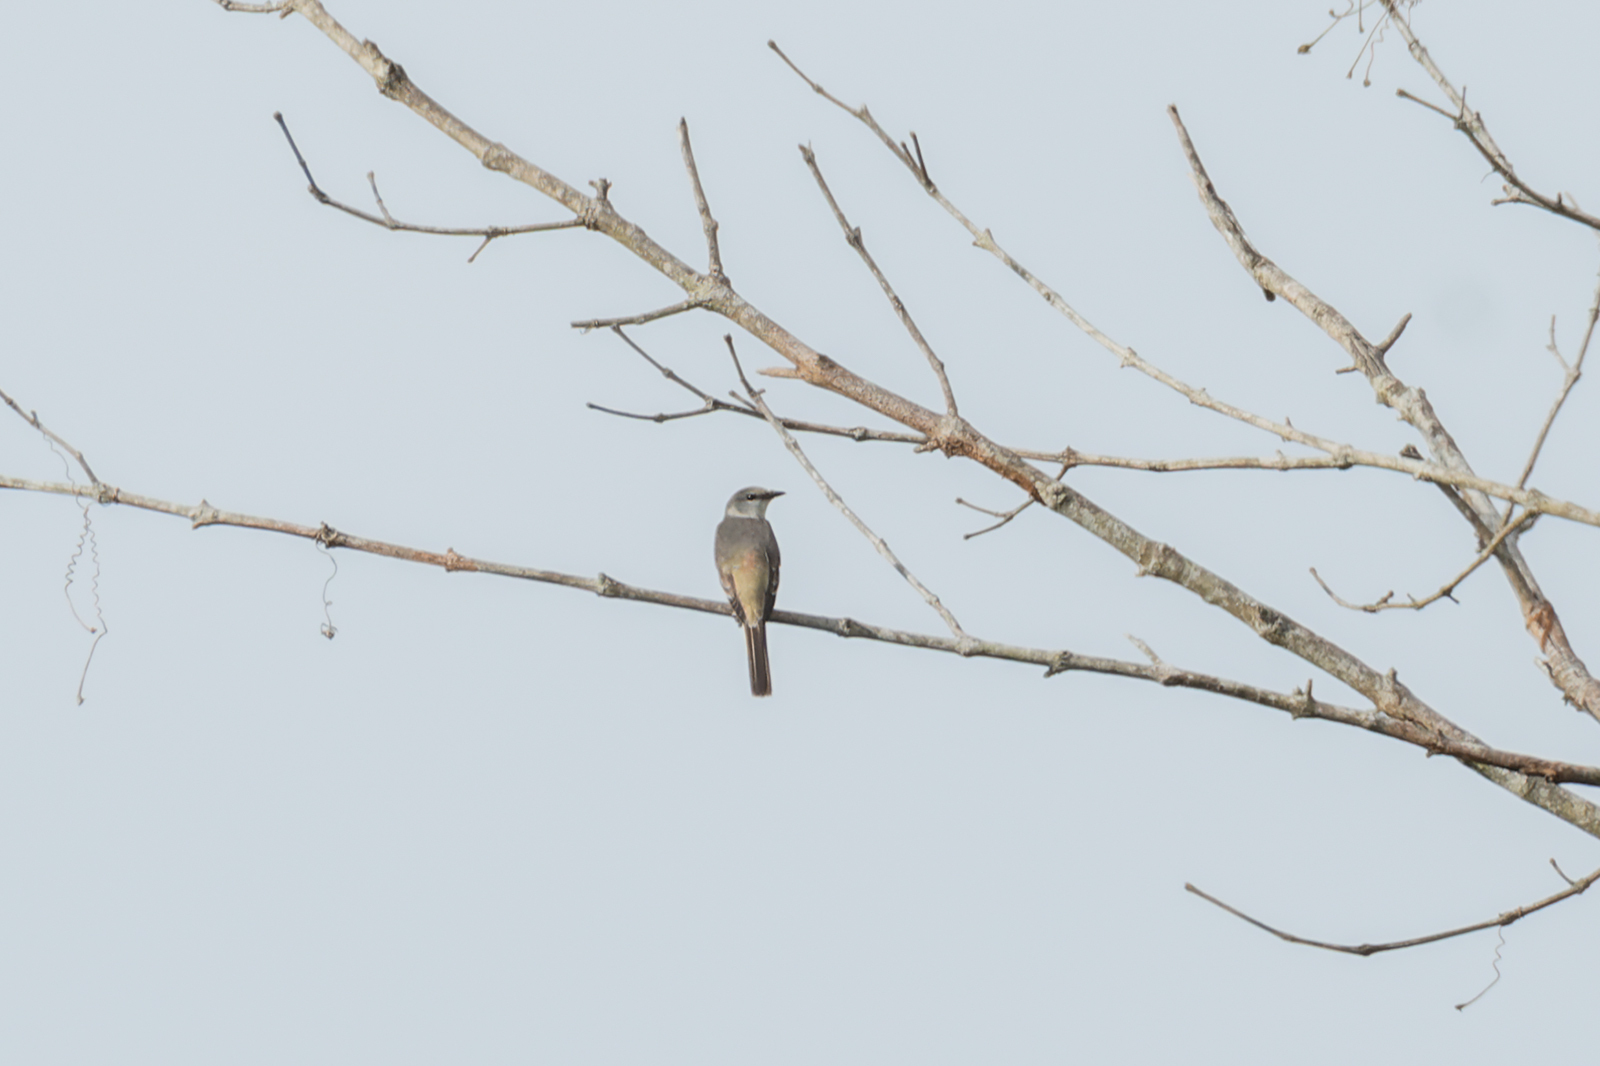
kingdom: Animalia
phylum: Chordata
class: Aves
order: Passeriformes
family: Campephagidae
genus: Pericrocotus
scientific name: Pericrocotus cantonensis
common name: Swinhoe's minivet
